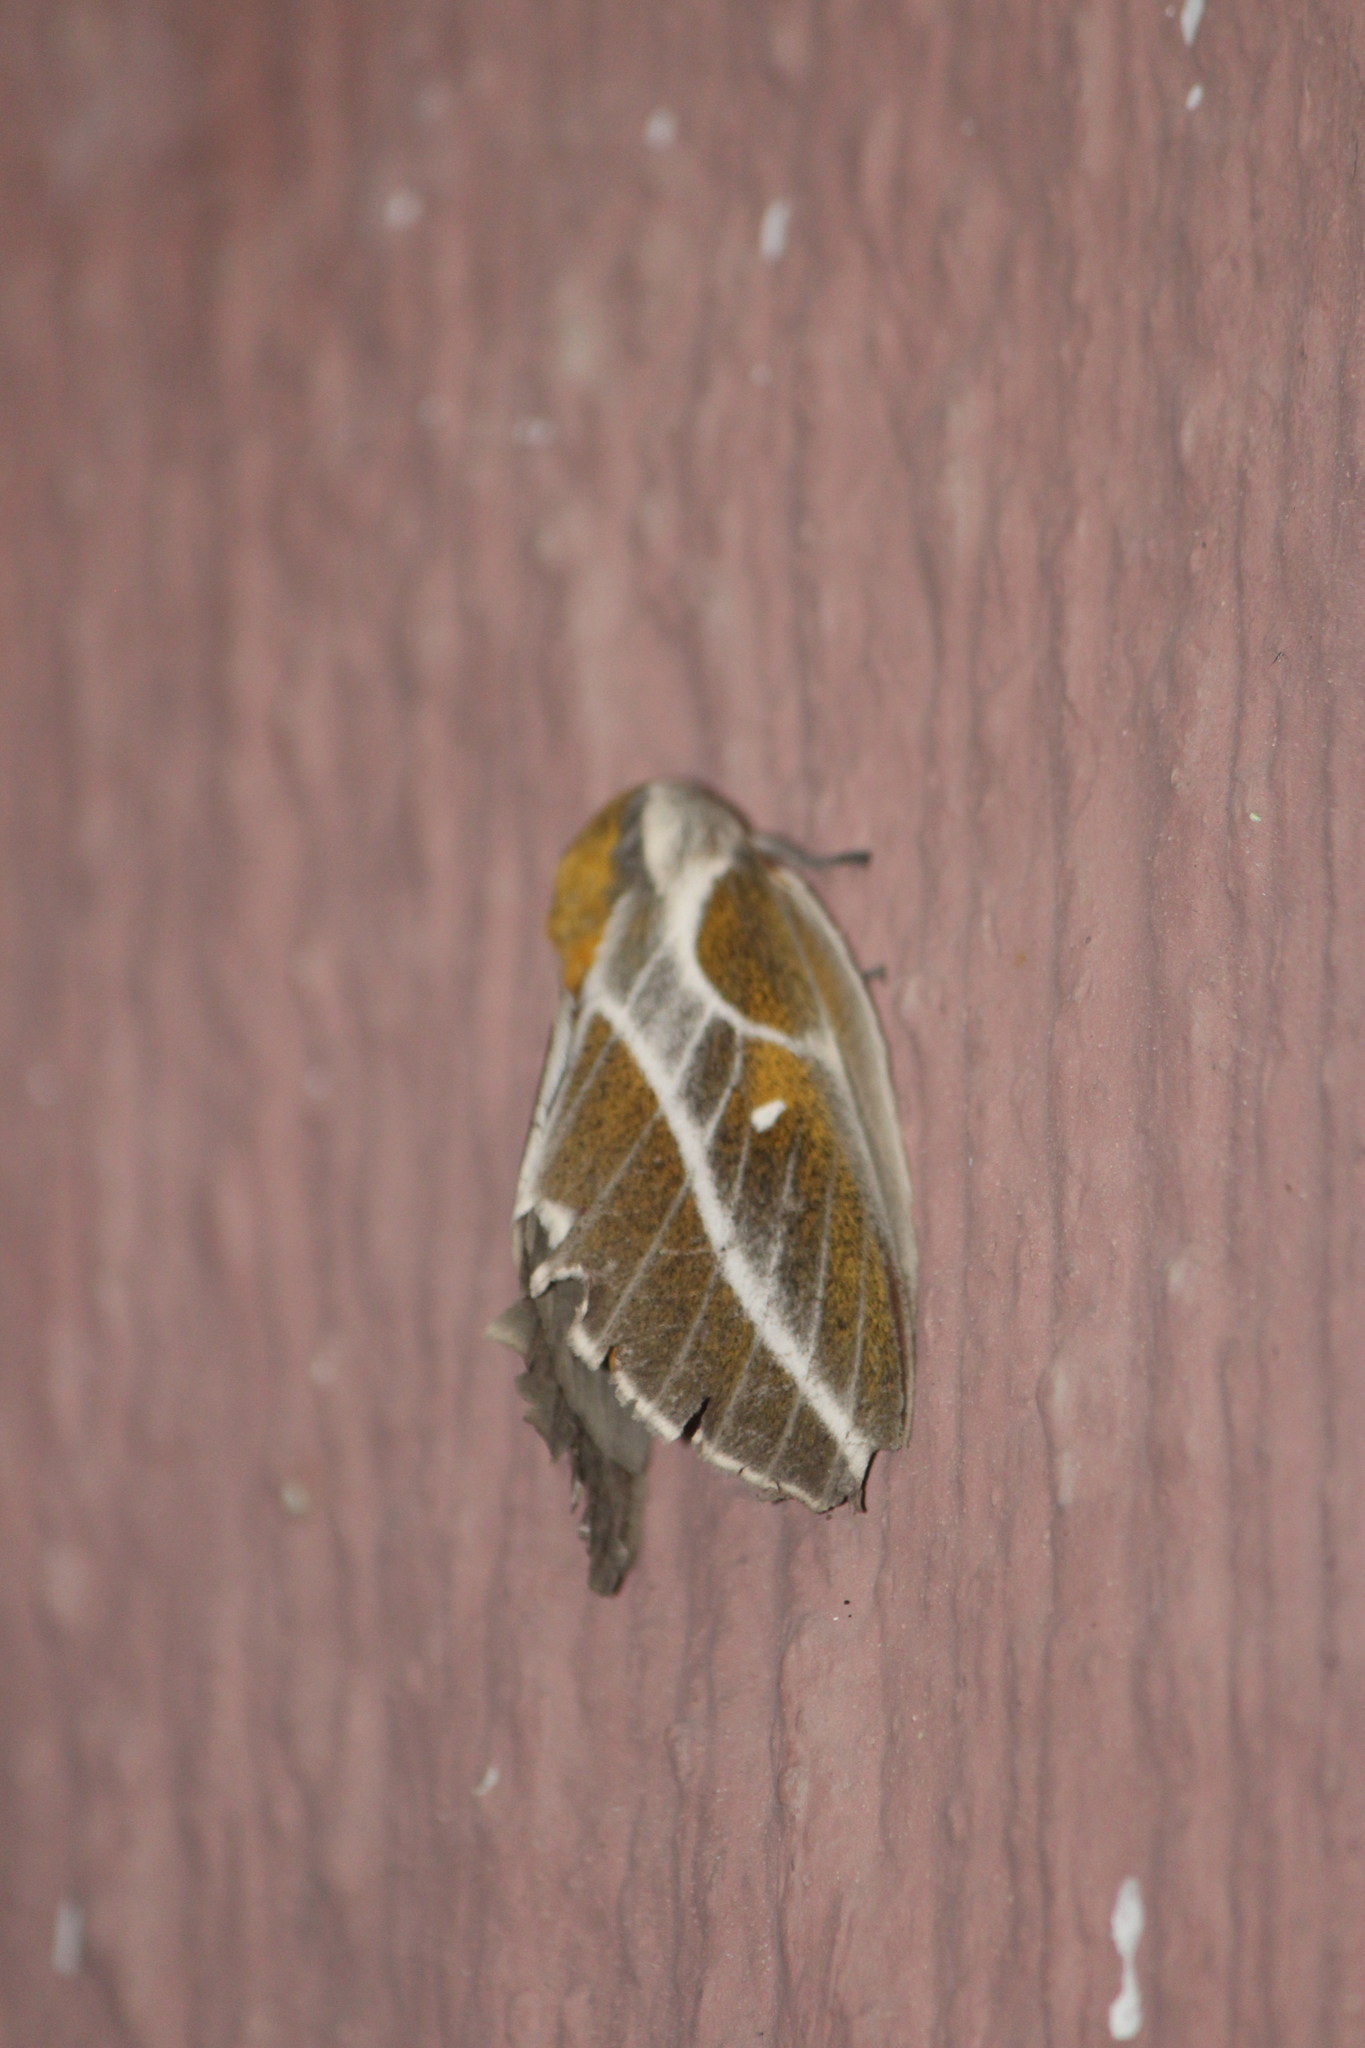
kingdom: Animalia
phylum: Arthropoda
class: Insecta
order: Lepidoptera
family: Saturniidae
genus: Syssphinx
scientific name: Syssphinx albolineata
